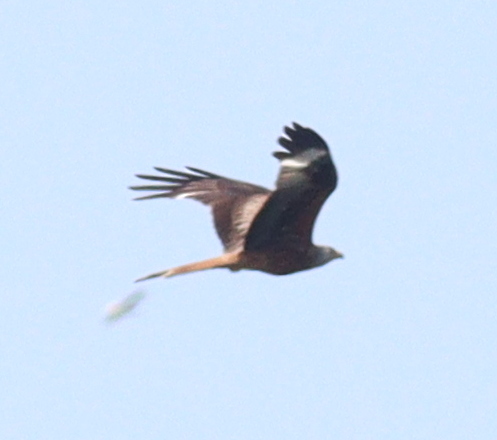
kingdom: Animalia
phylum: Chordata
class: Aves
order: Accipitriformes
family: Accipitridae
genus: Milvus
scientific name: Milvus milvus
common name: Red kite
